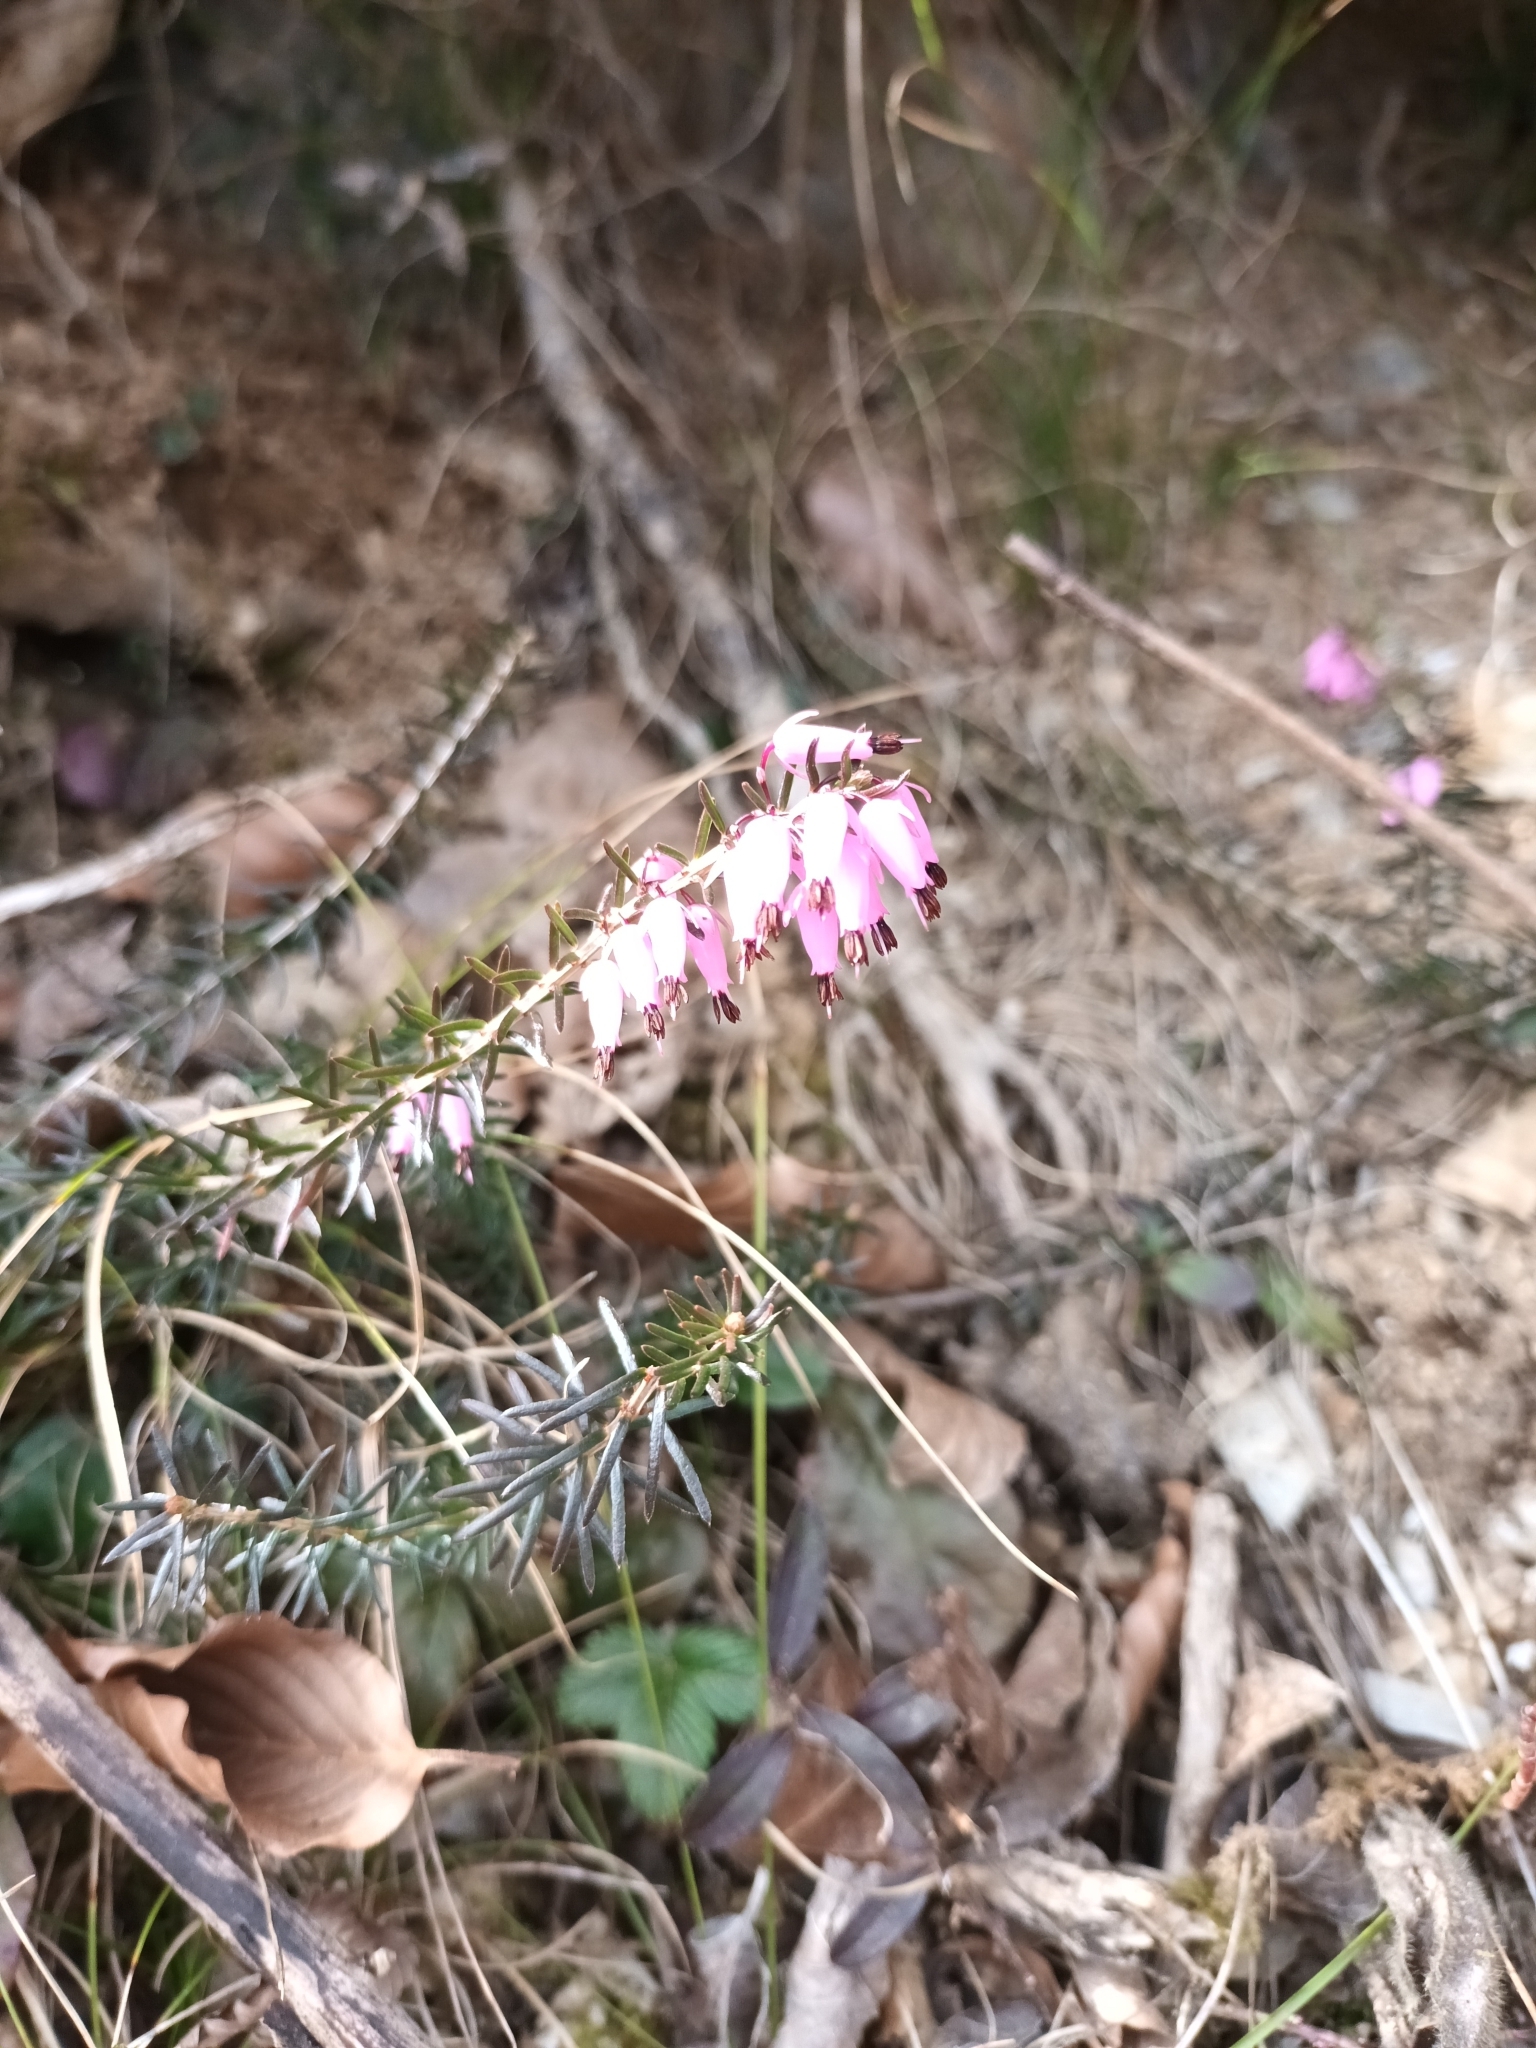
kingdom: Plantae
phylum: Tracheophyta
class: Magnoliopsida
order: Ericales
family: Ericaceae
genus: Erica
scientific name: Erica carnea
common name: Winter heath
